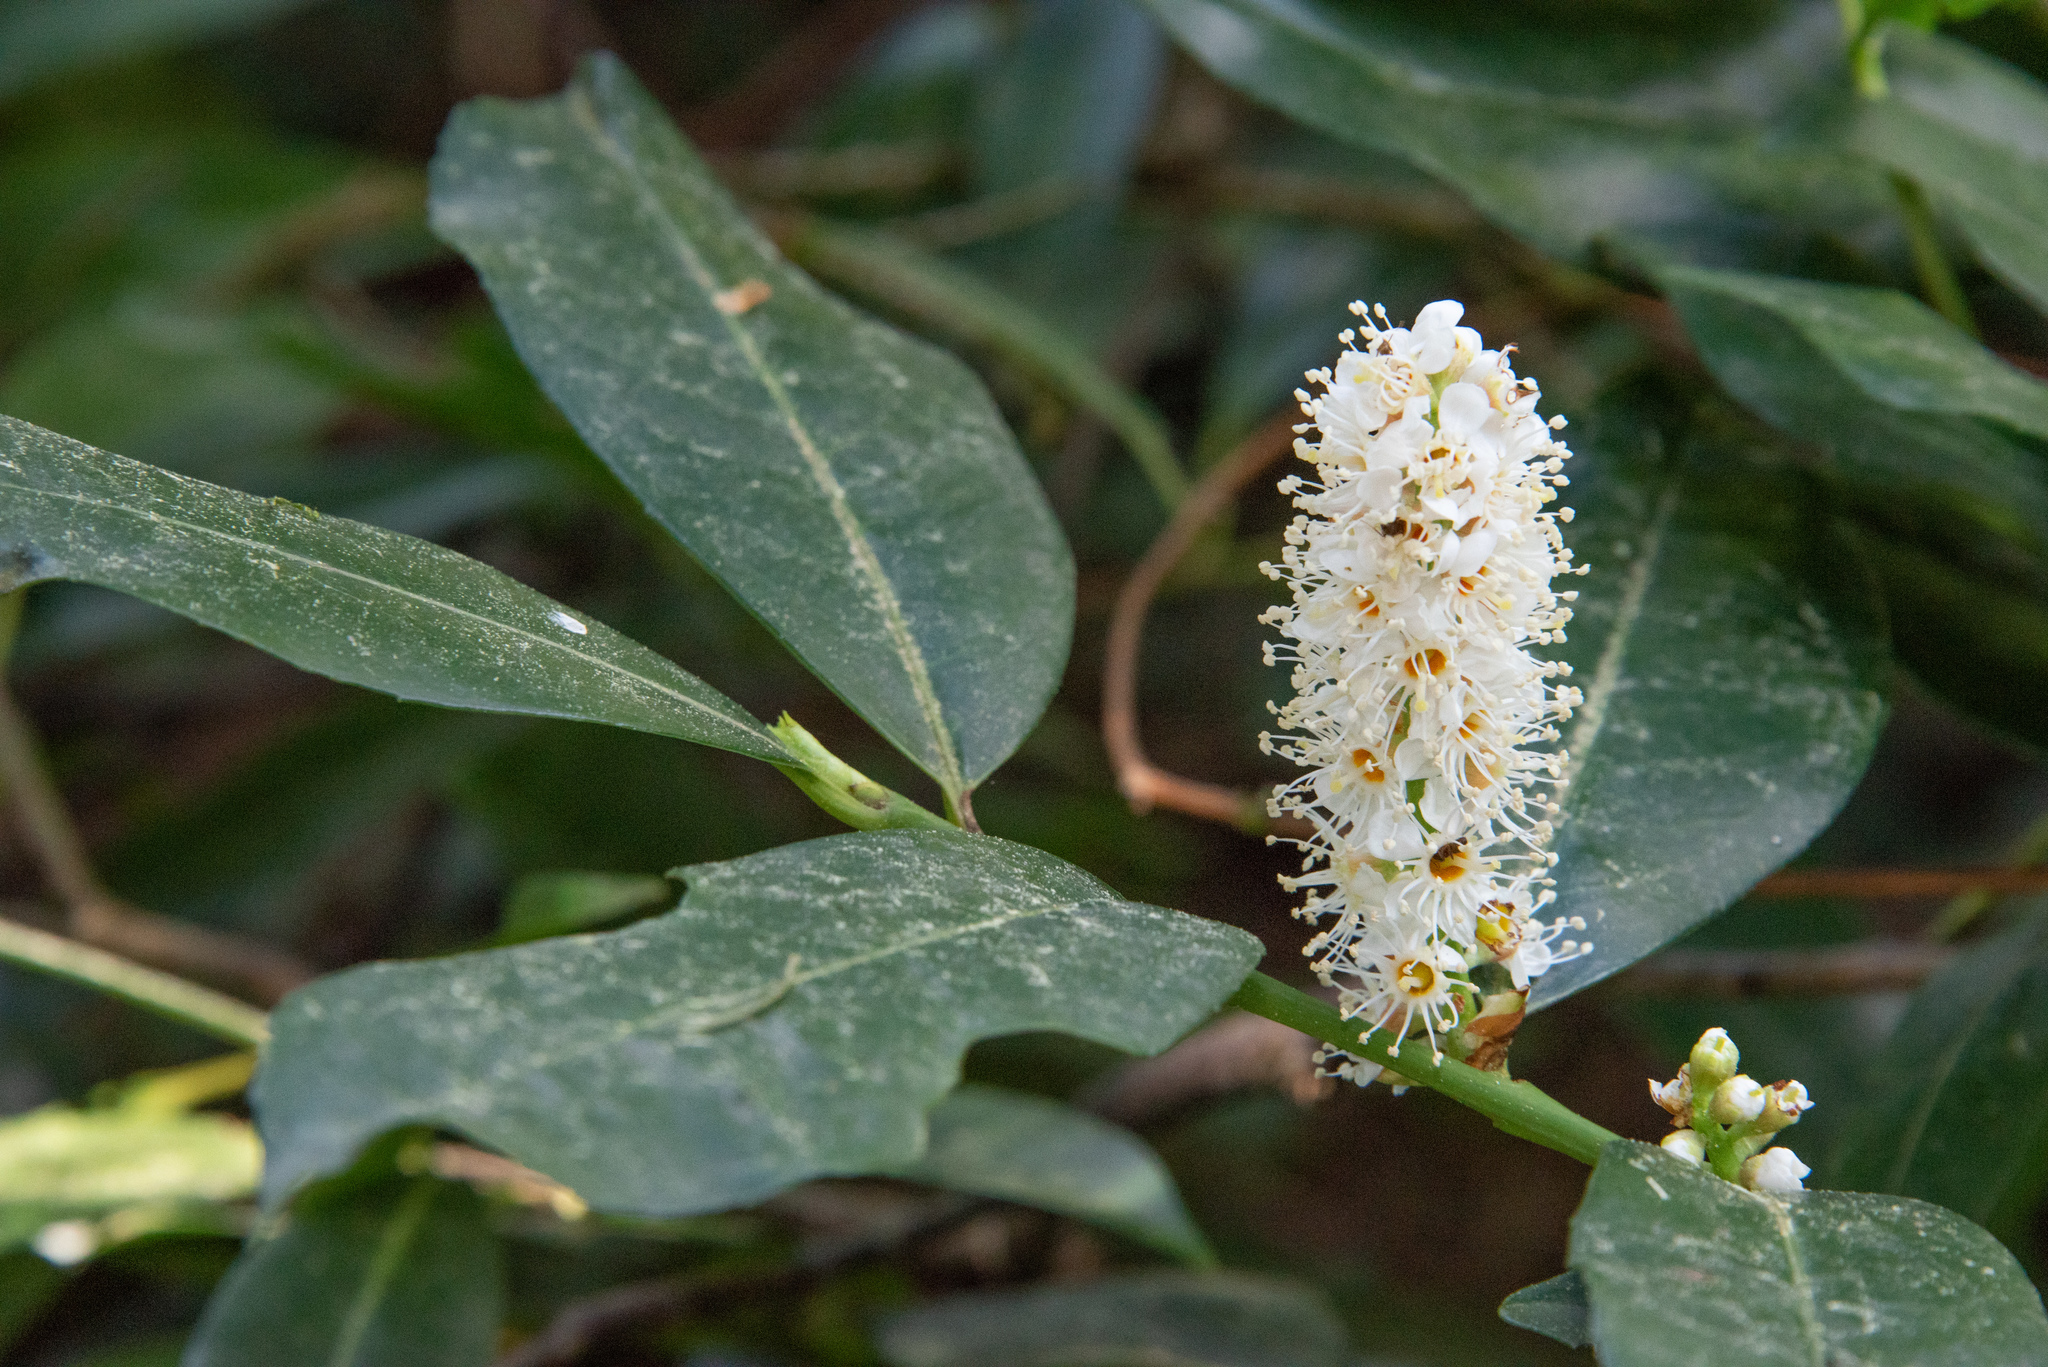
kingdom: Plantae
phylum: Tracheophyta
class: Magnoliopsida
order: Rosales
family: Rosaceae
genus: Prunus
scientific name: Prunus laurocerasus
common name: Cherry laurel
